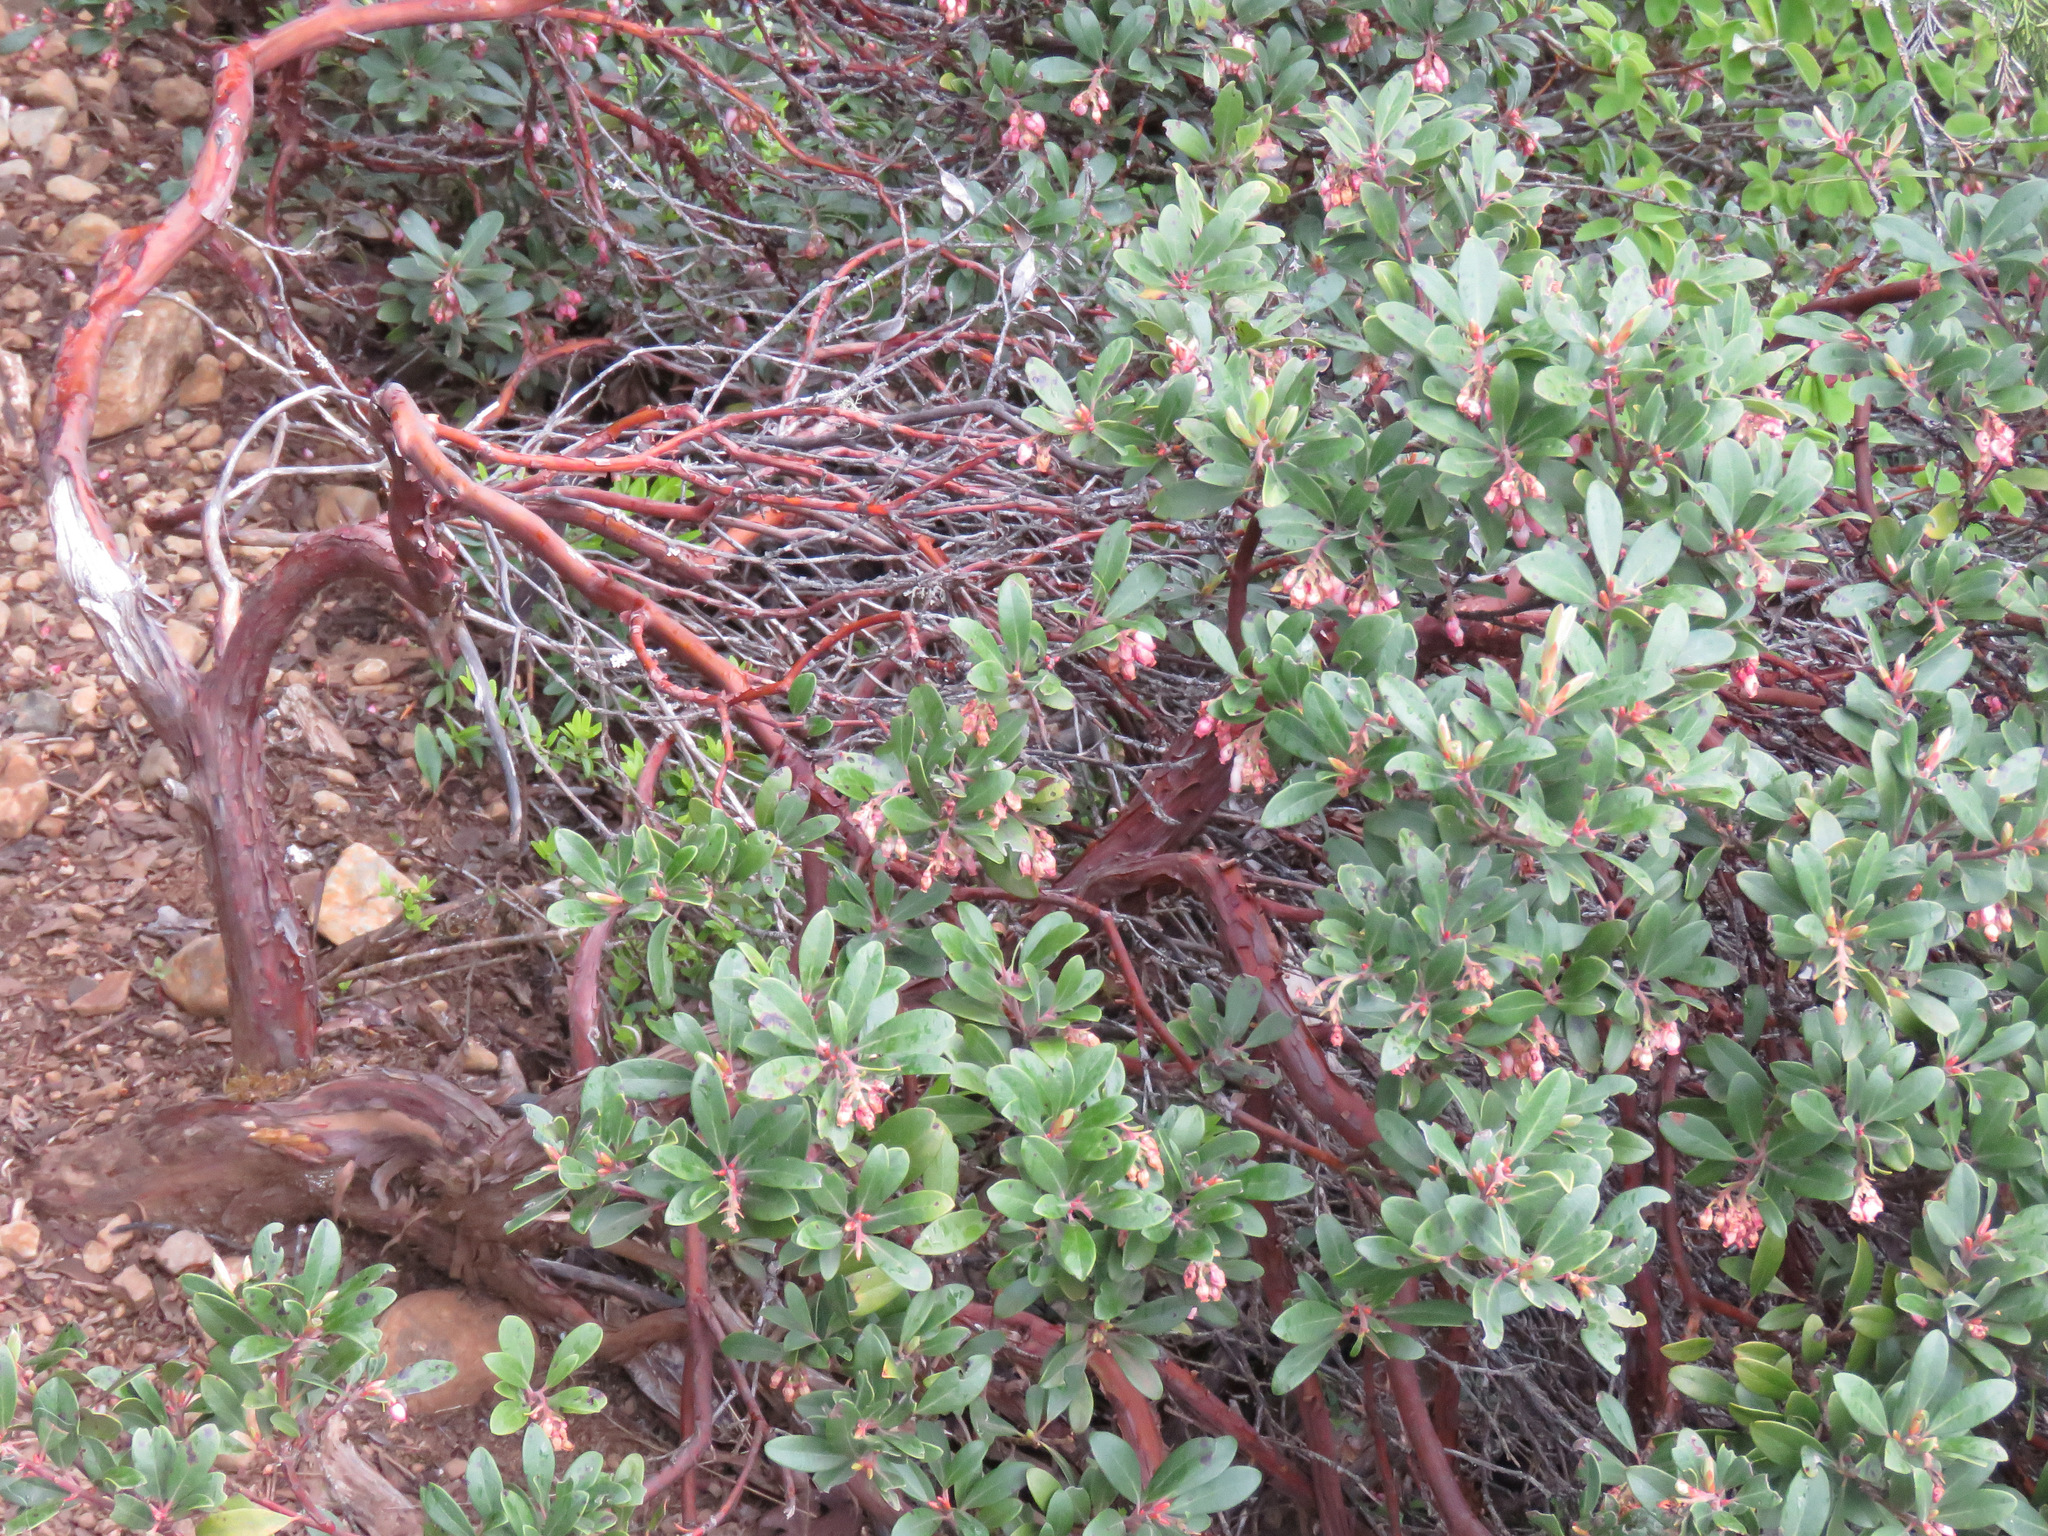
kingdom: Plantae
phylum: Tracheophyta
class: Magnoliopsida
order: Ericales
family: Ericaceae
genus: Arctostaphylos
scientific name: Arctostaphylos columbiana
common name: Bristly bearberry
